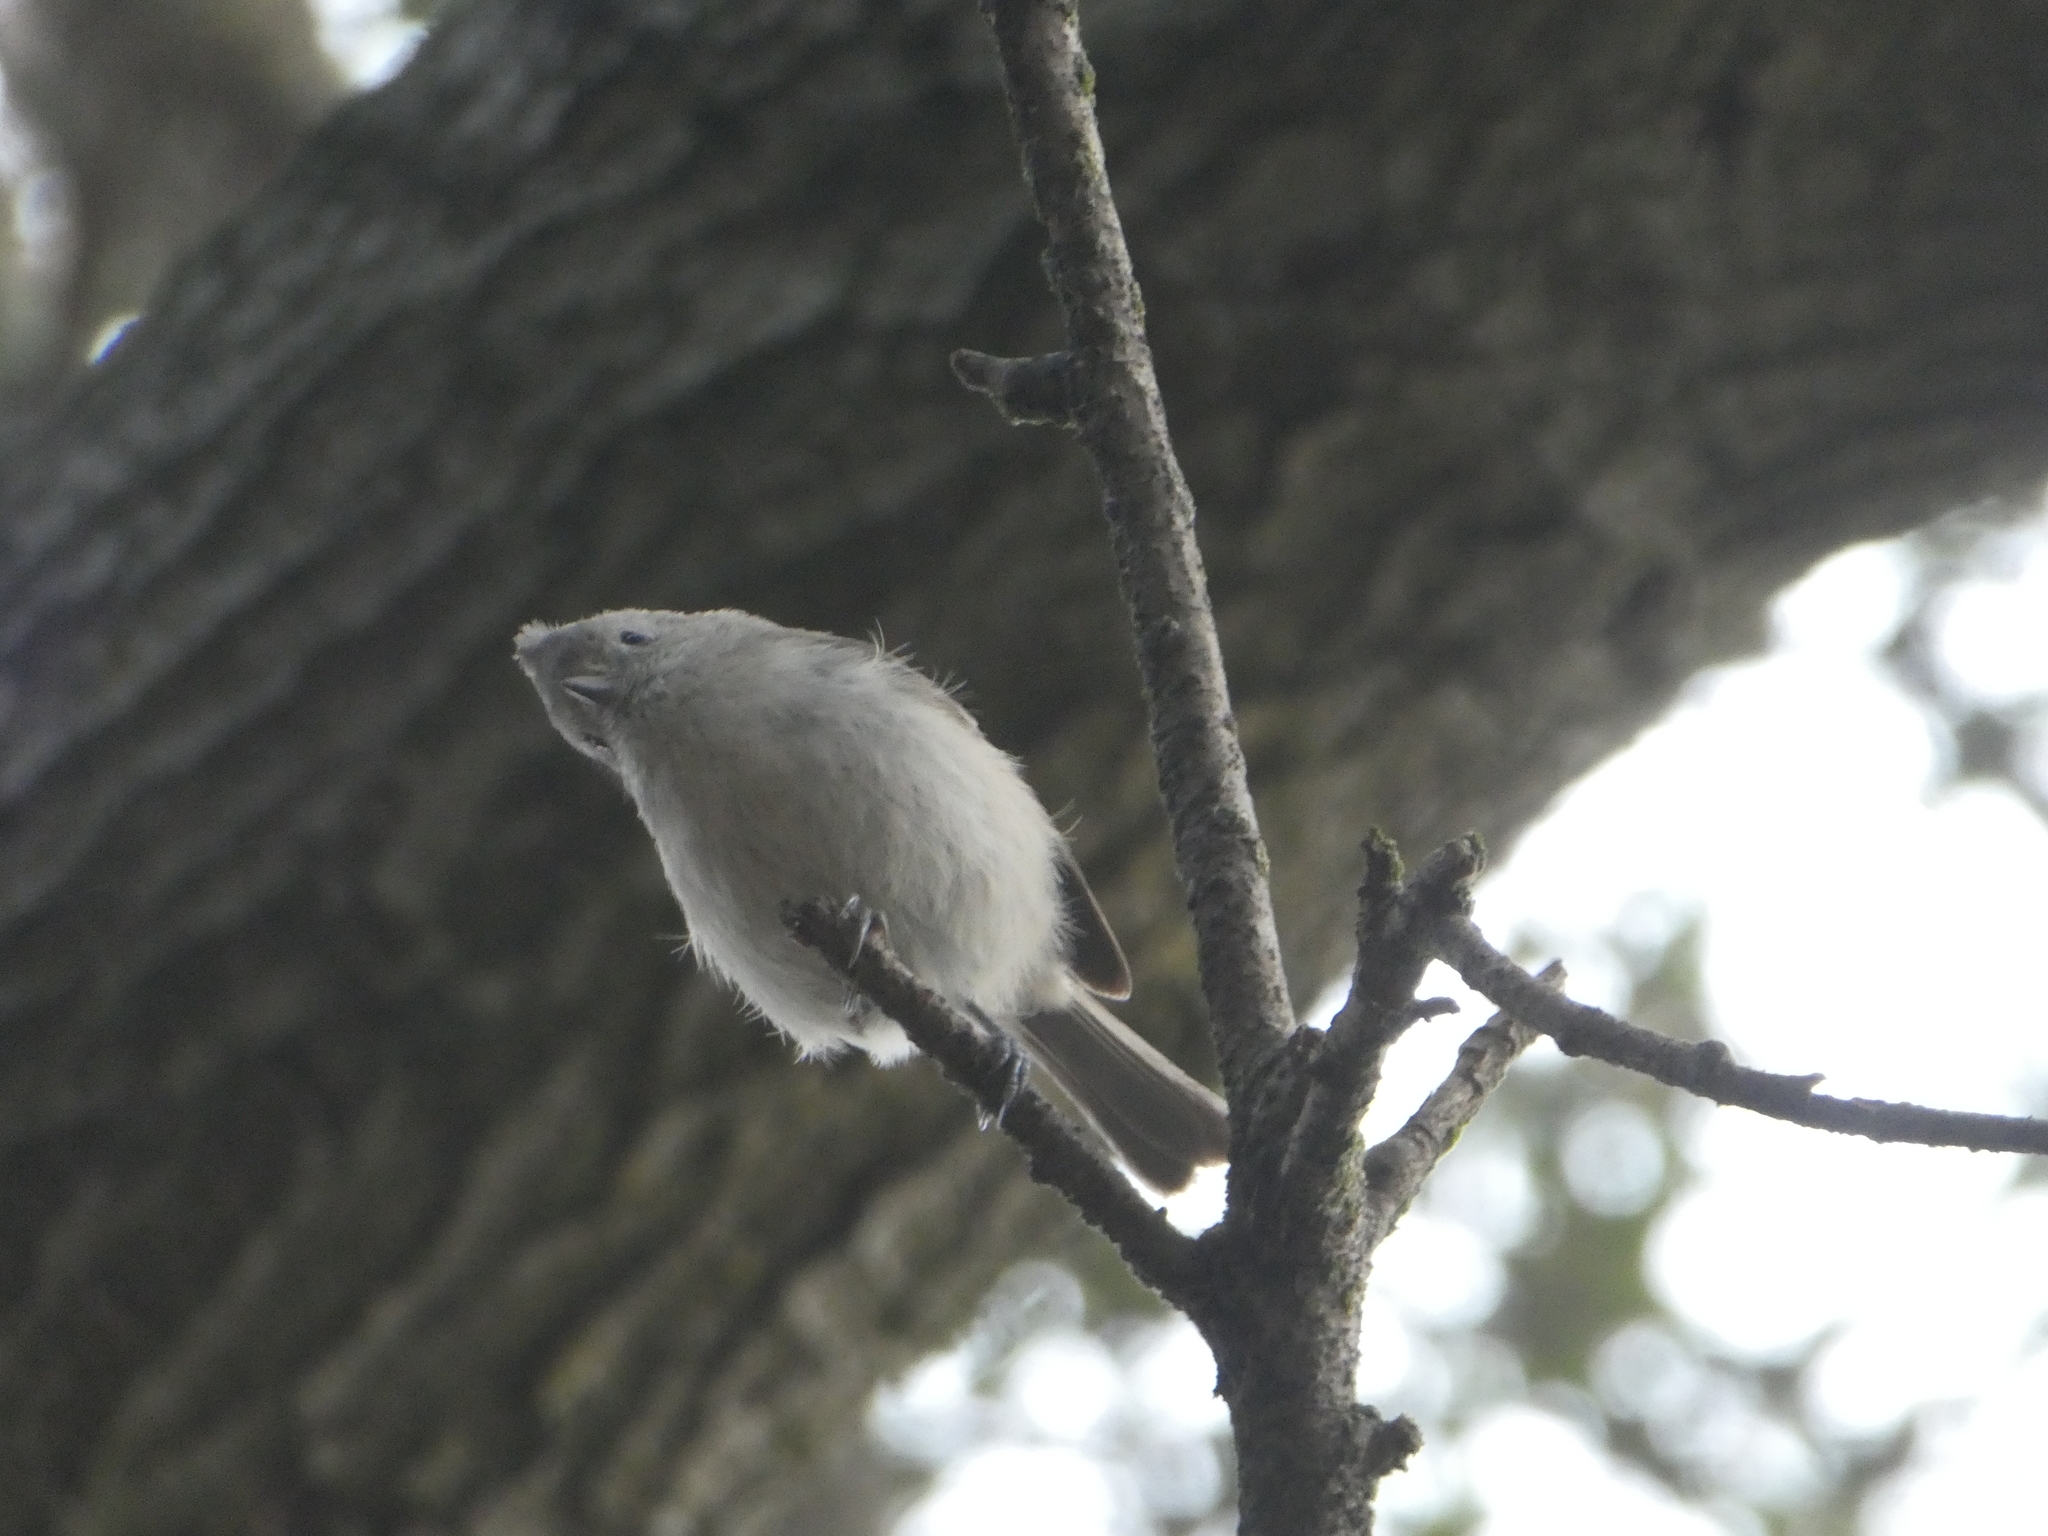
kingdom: Animalia
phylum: Chordata
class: Aves
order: Passeriformes
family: Paridae
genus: Baeolophus
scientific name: Baeolophus inornatus
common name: Oak titmouse
